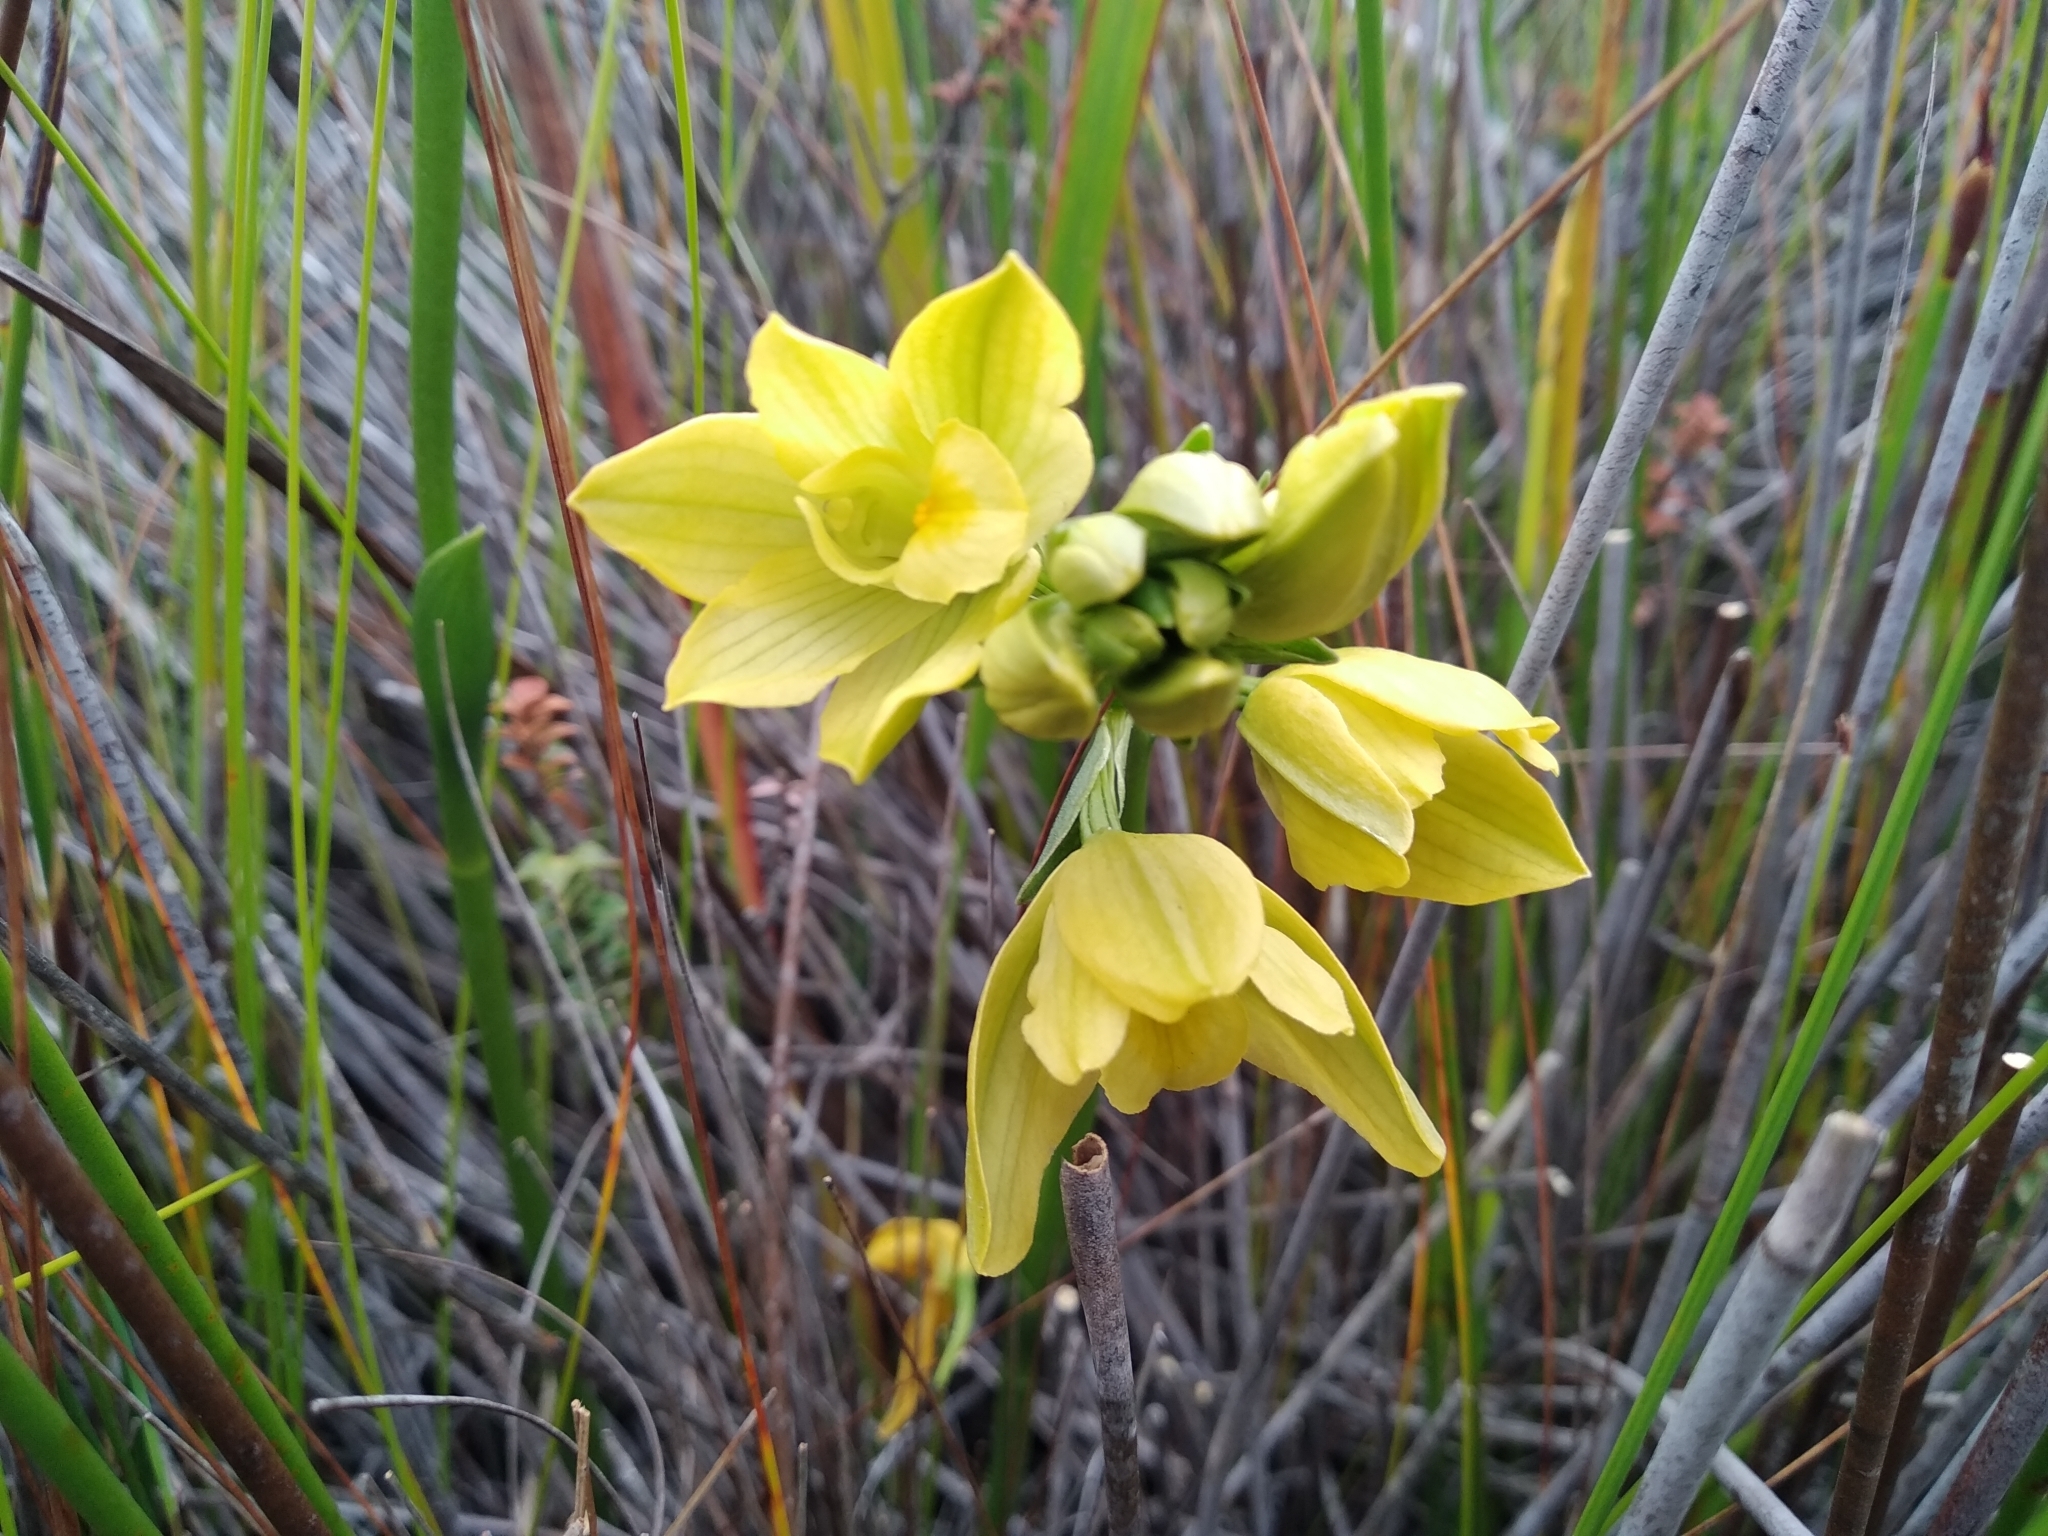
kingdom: Plantae
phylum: Tracheophyta
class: Liliopsida
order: Asparagales
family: Orchidaceae
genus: Eulophia
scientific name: Eulophia tabularis
